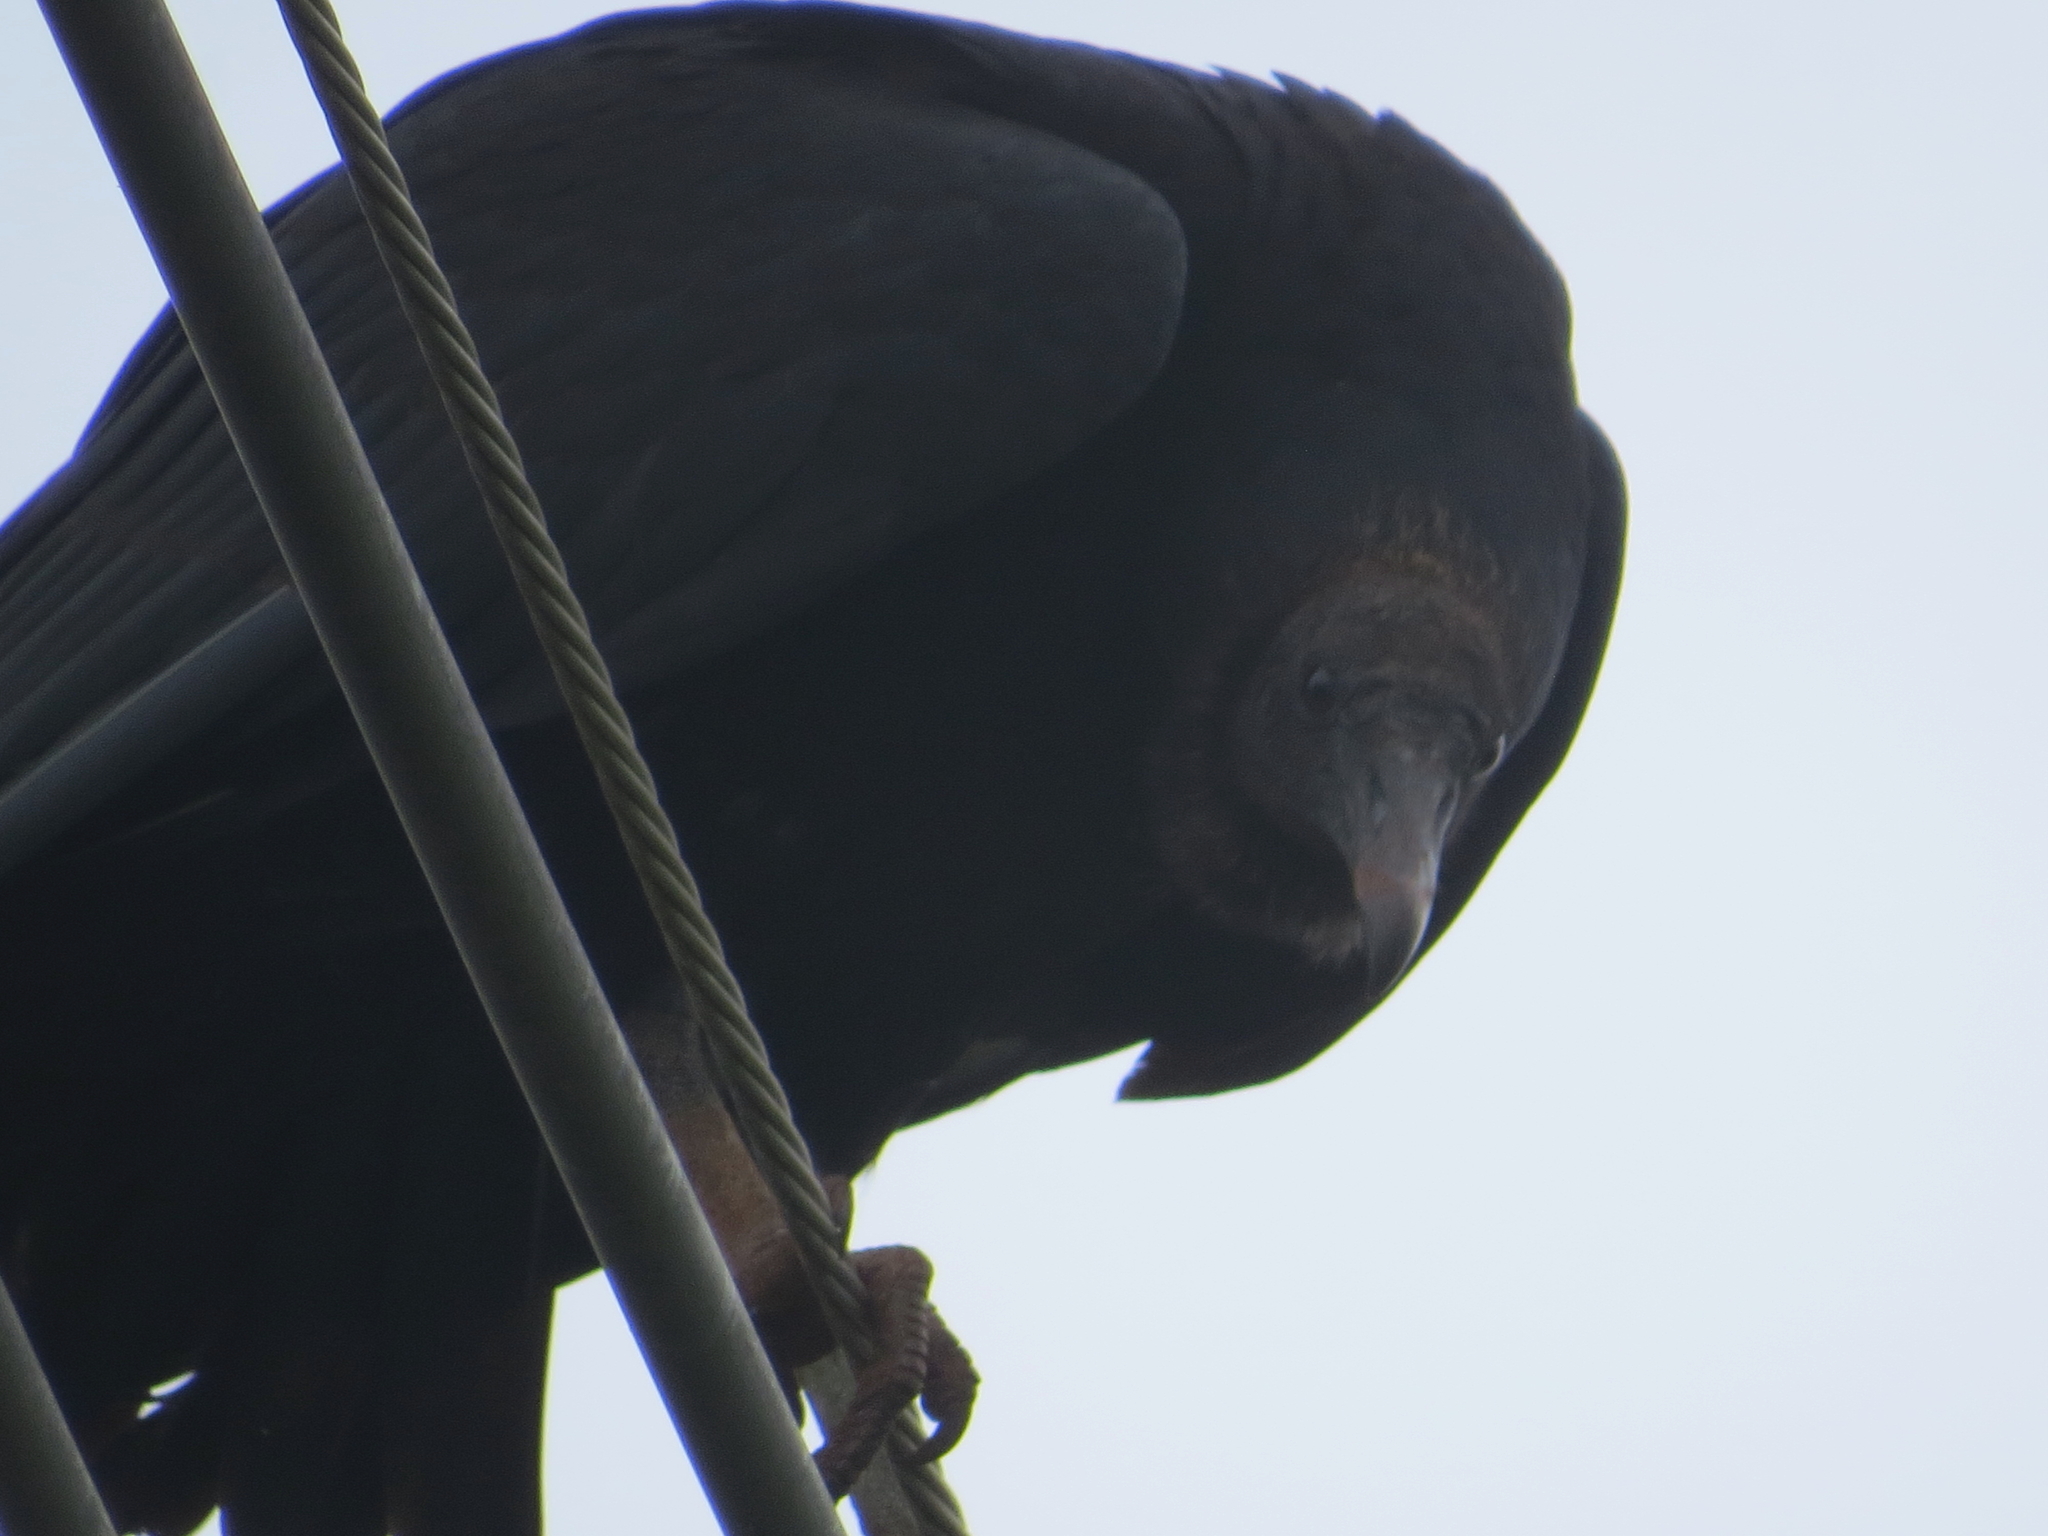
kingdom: Animalia
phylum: Chordata
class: Aves
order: Accipitriformes
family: Cathartidae
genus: Coragyps
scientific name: Coragyps atratus
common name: Black vulture
